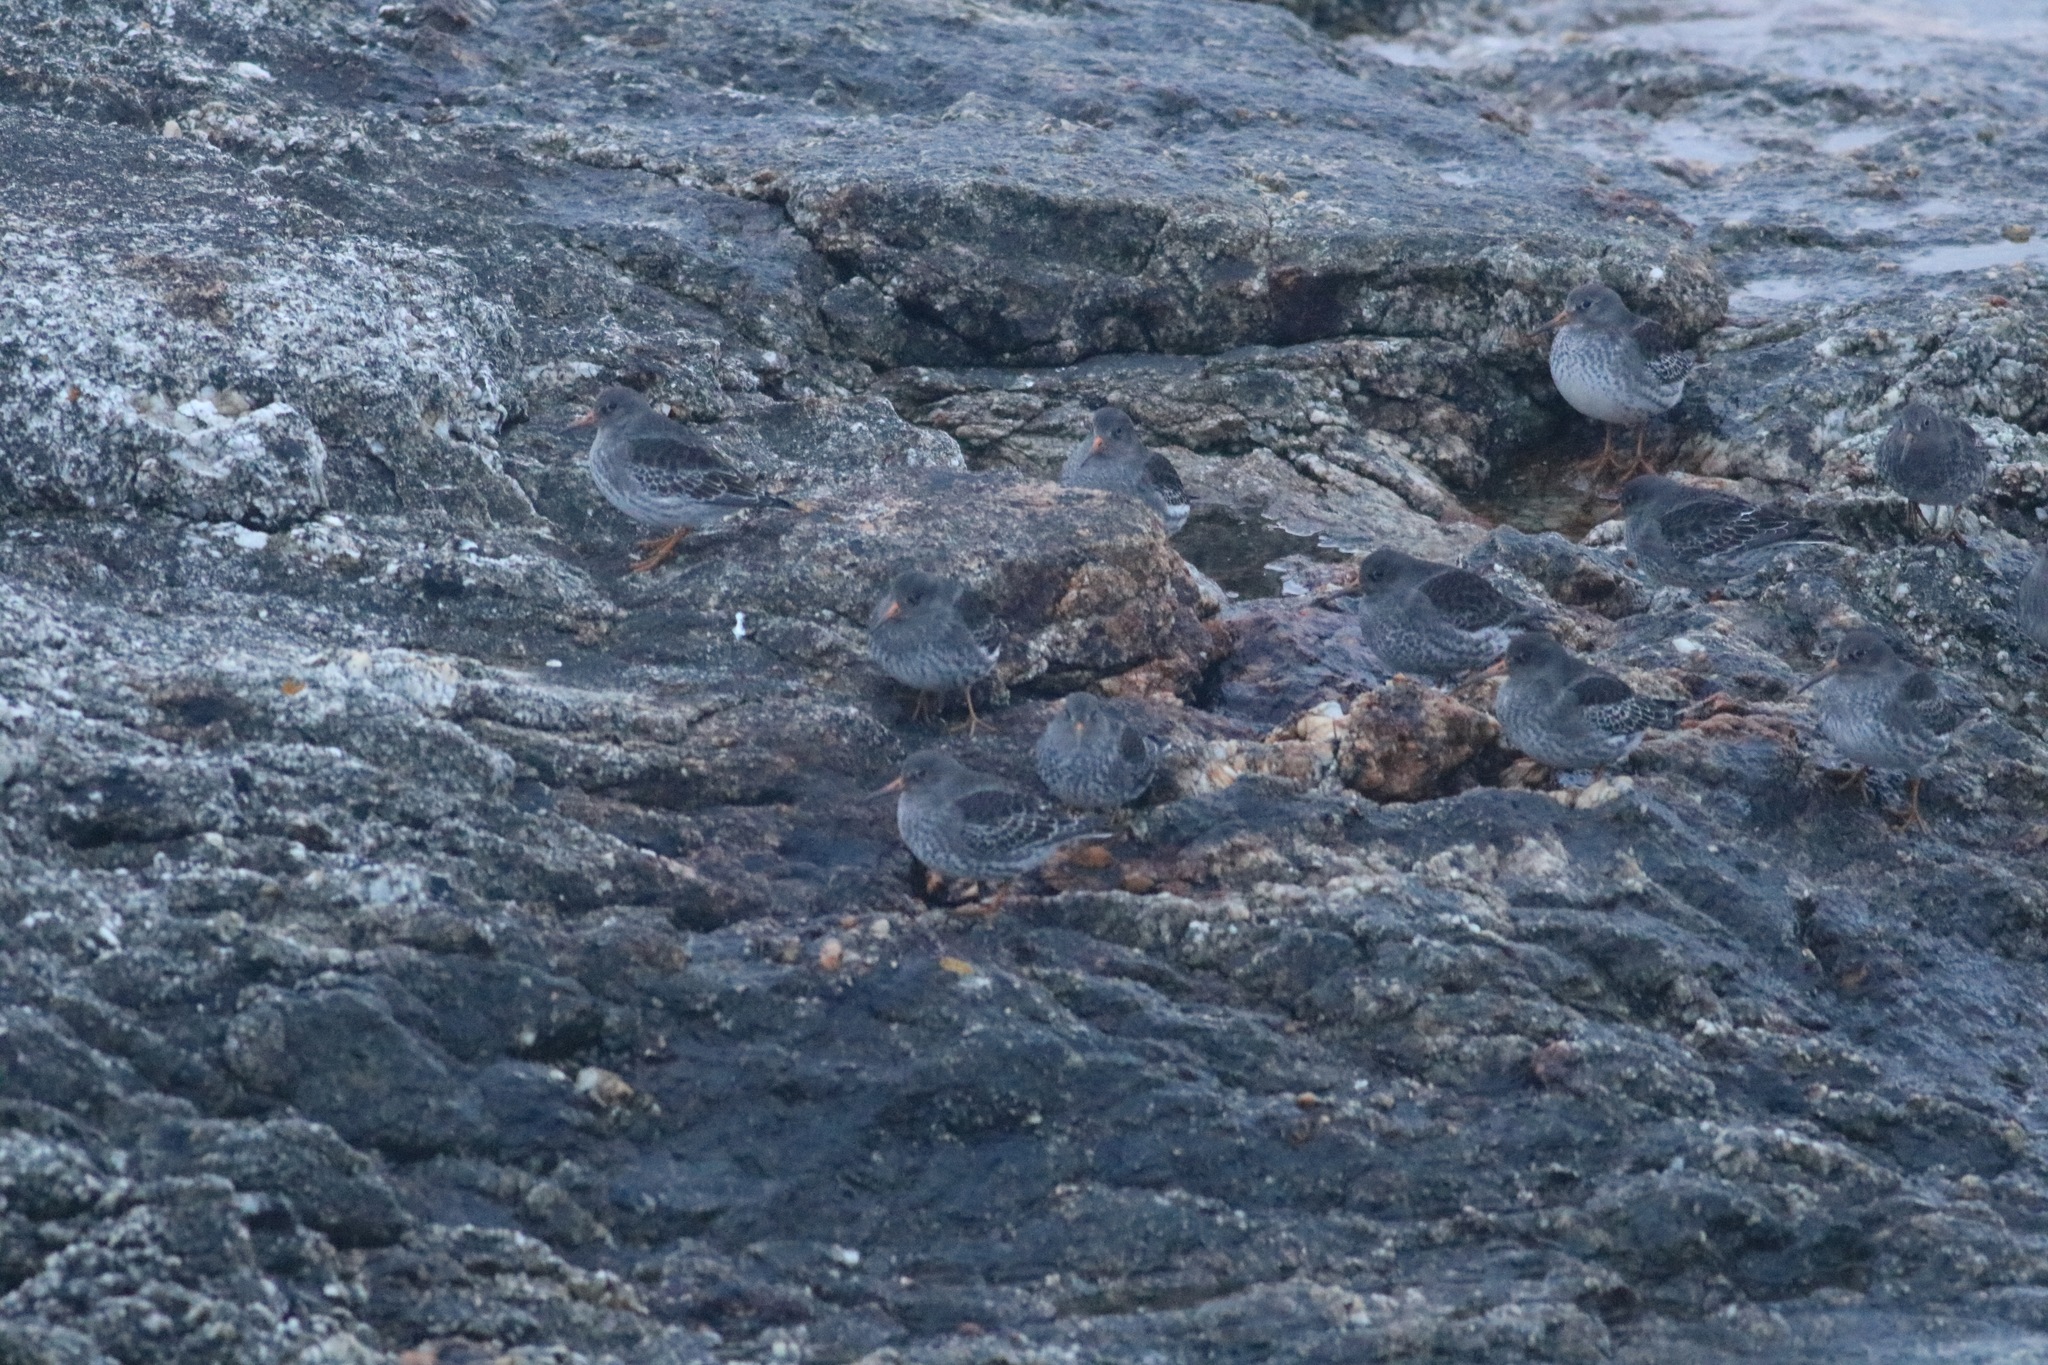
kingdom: Animalia
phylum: Chordata
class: Aves
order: Charadriiformes
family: Scolopacidae
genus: Calidris
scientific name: Calidris maritima
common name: Purple sandpiper
